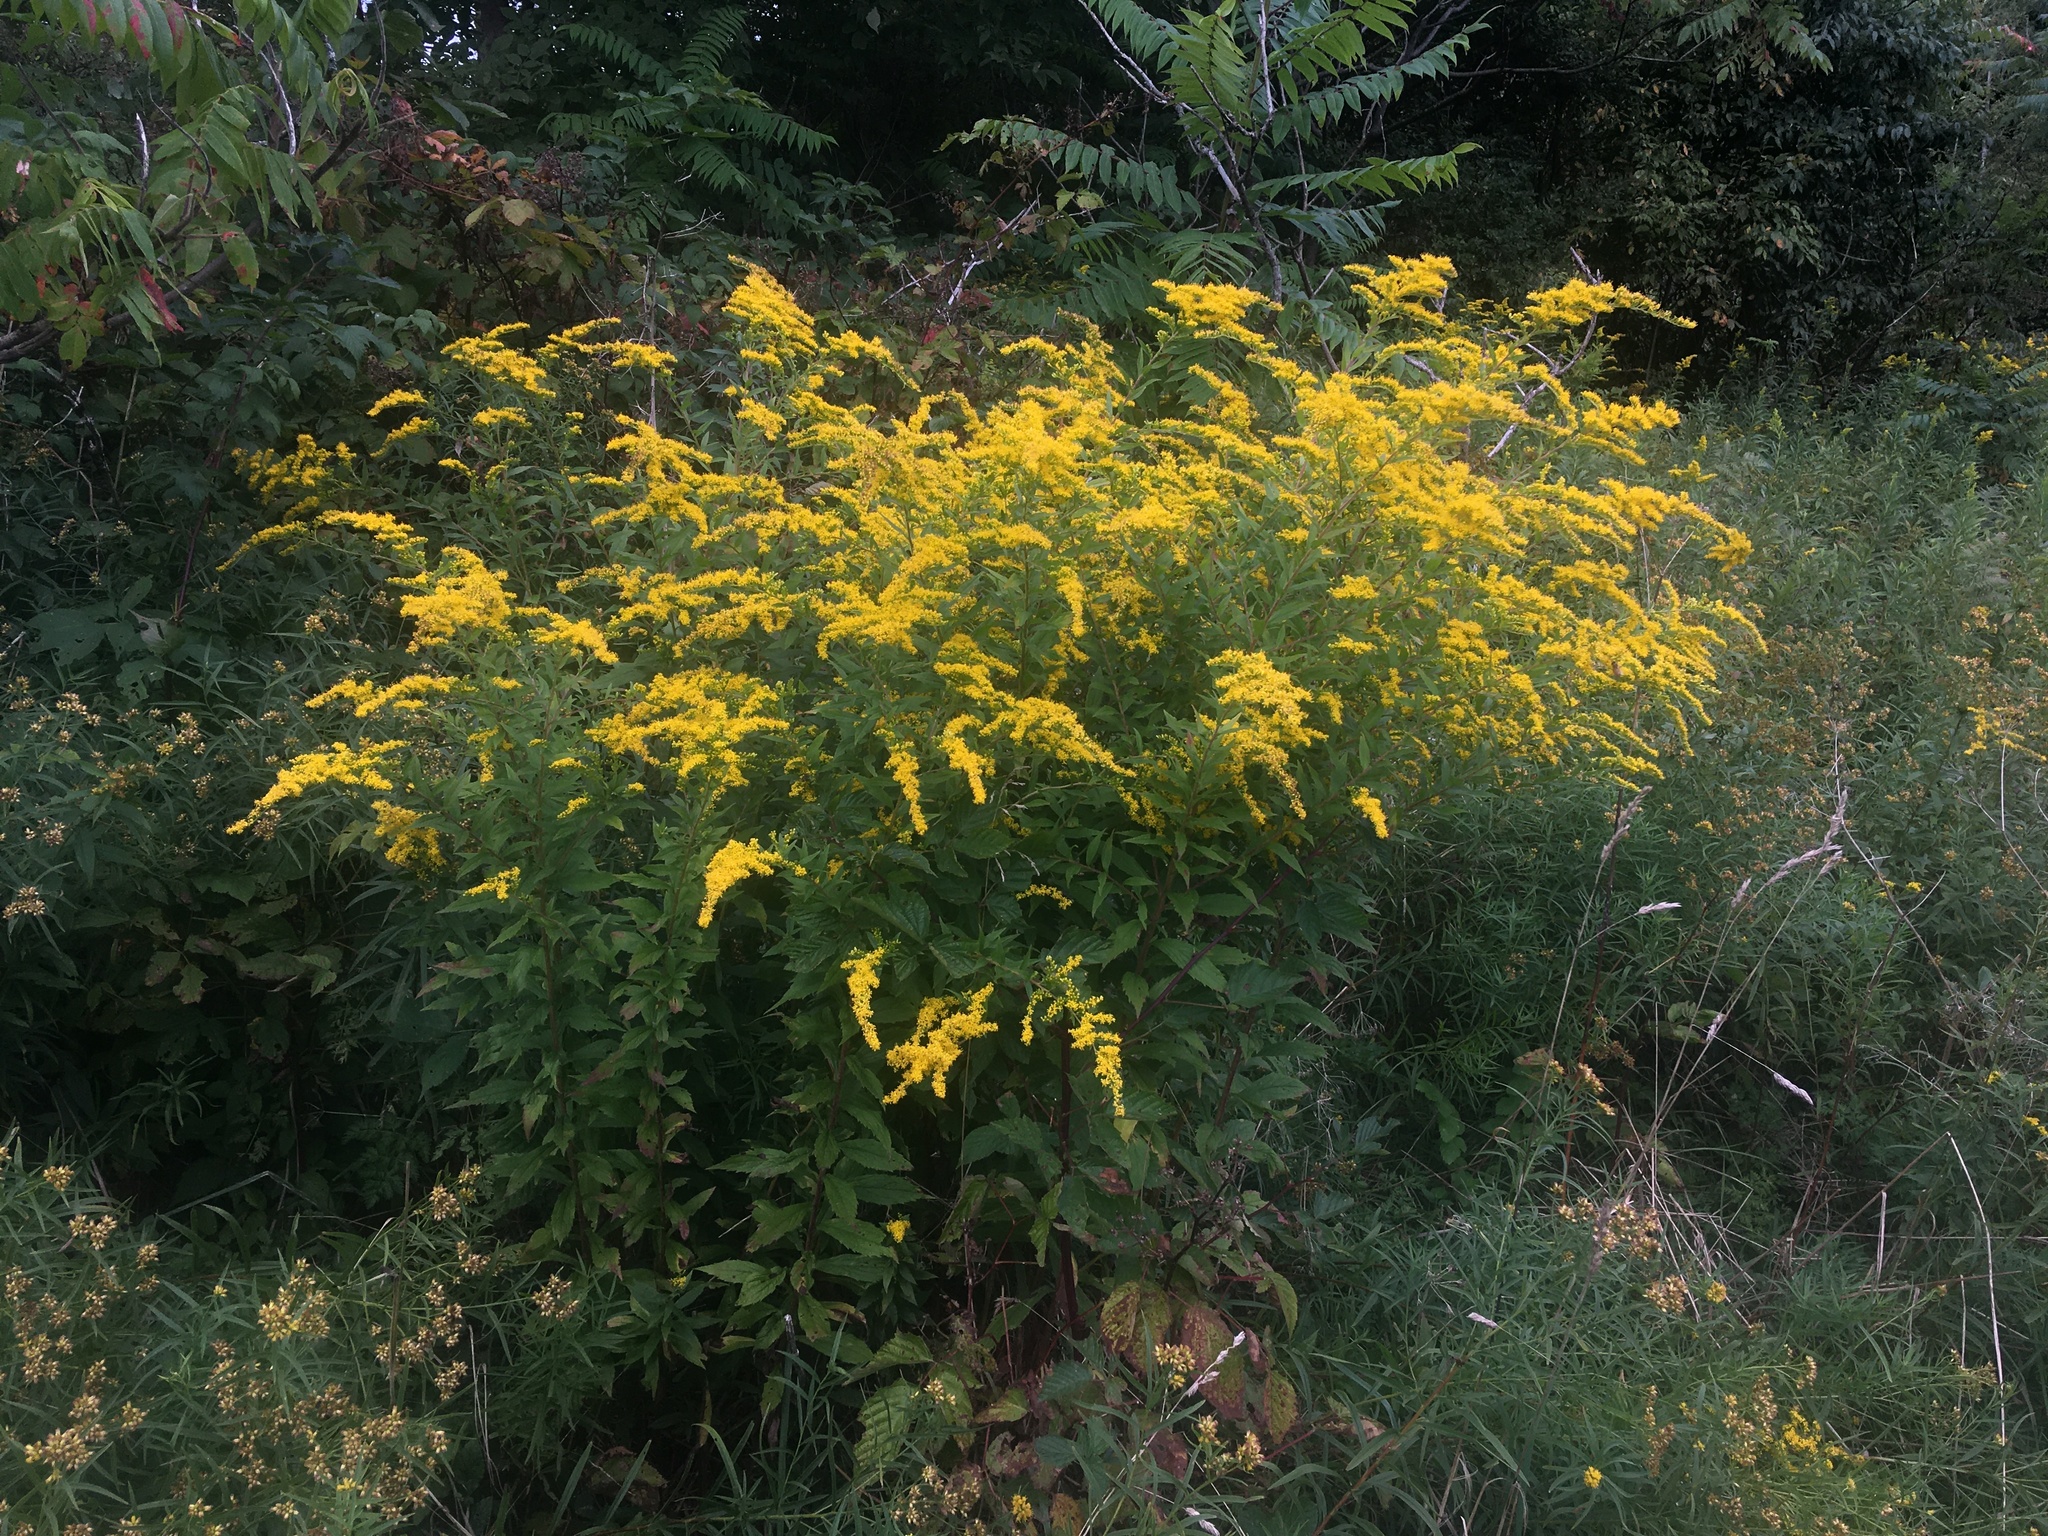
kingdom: Plantae
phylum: Tracheophyta
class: Magnoliopsida
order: Asterales
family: Asteraceae
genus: Solidago
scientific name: Solidago rugosa
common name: Rough-stemmed goldenrod
